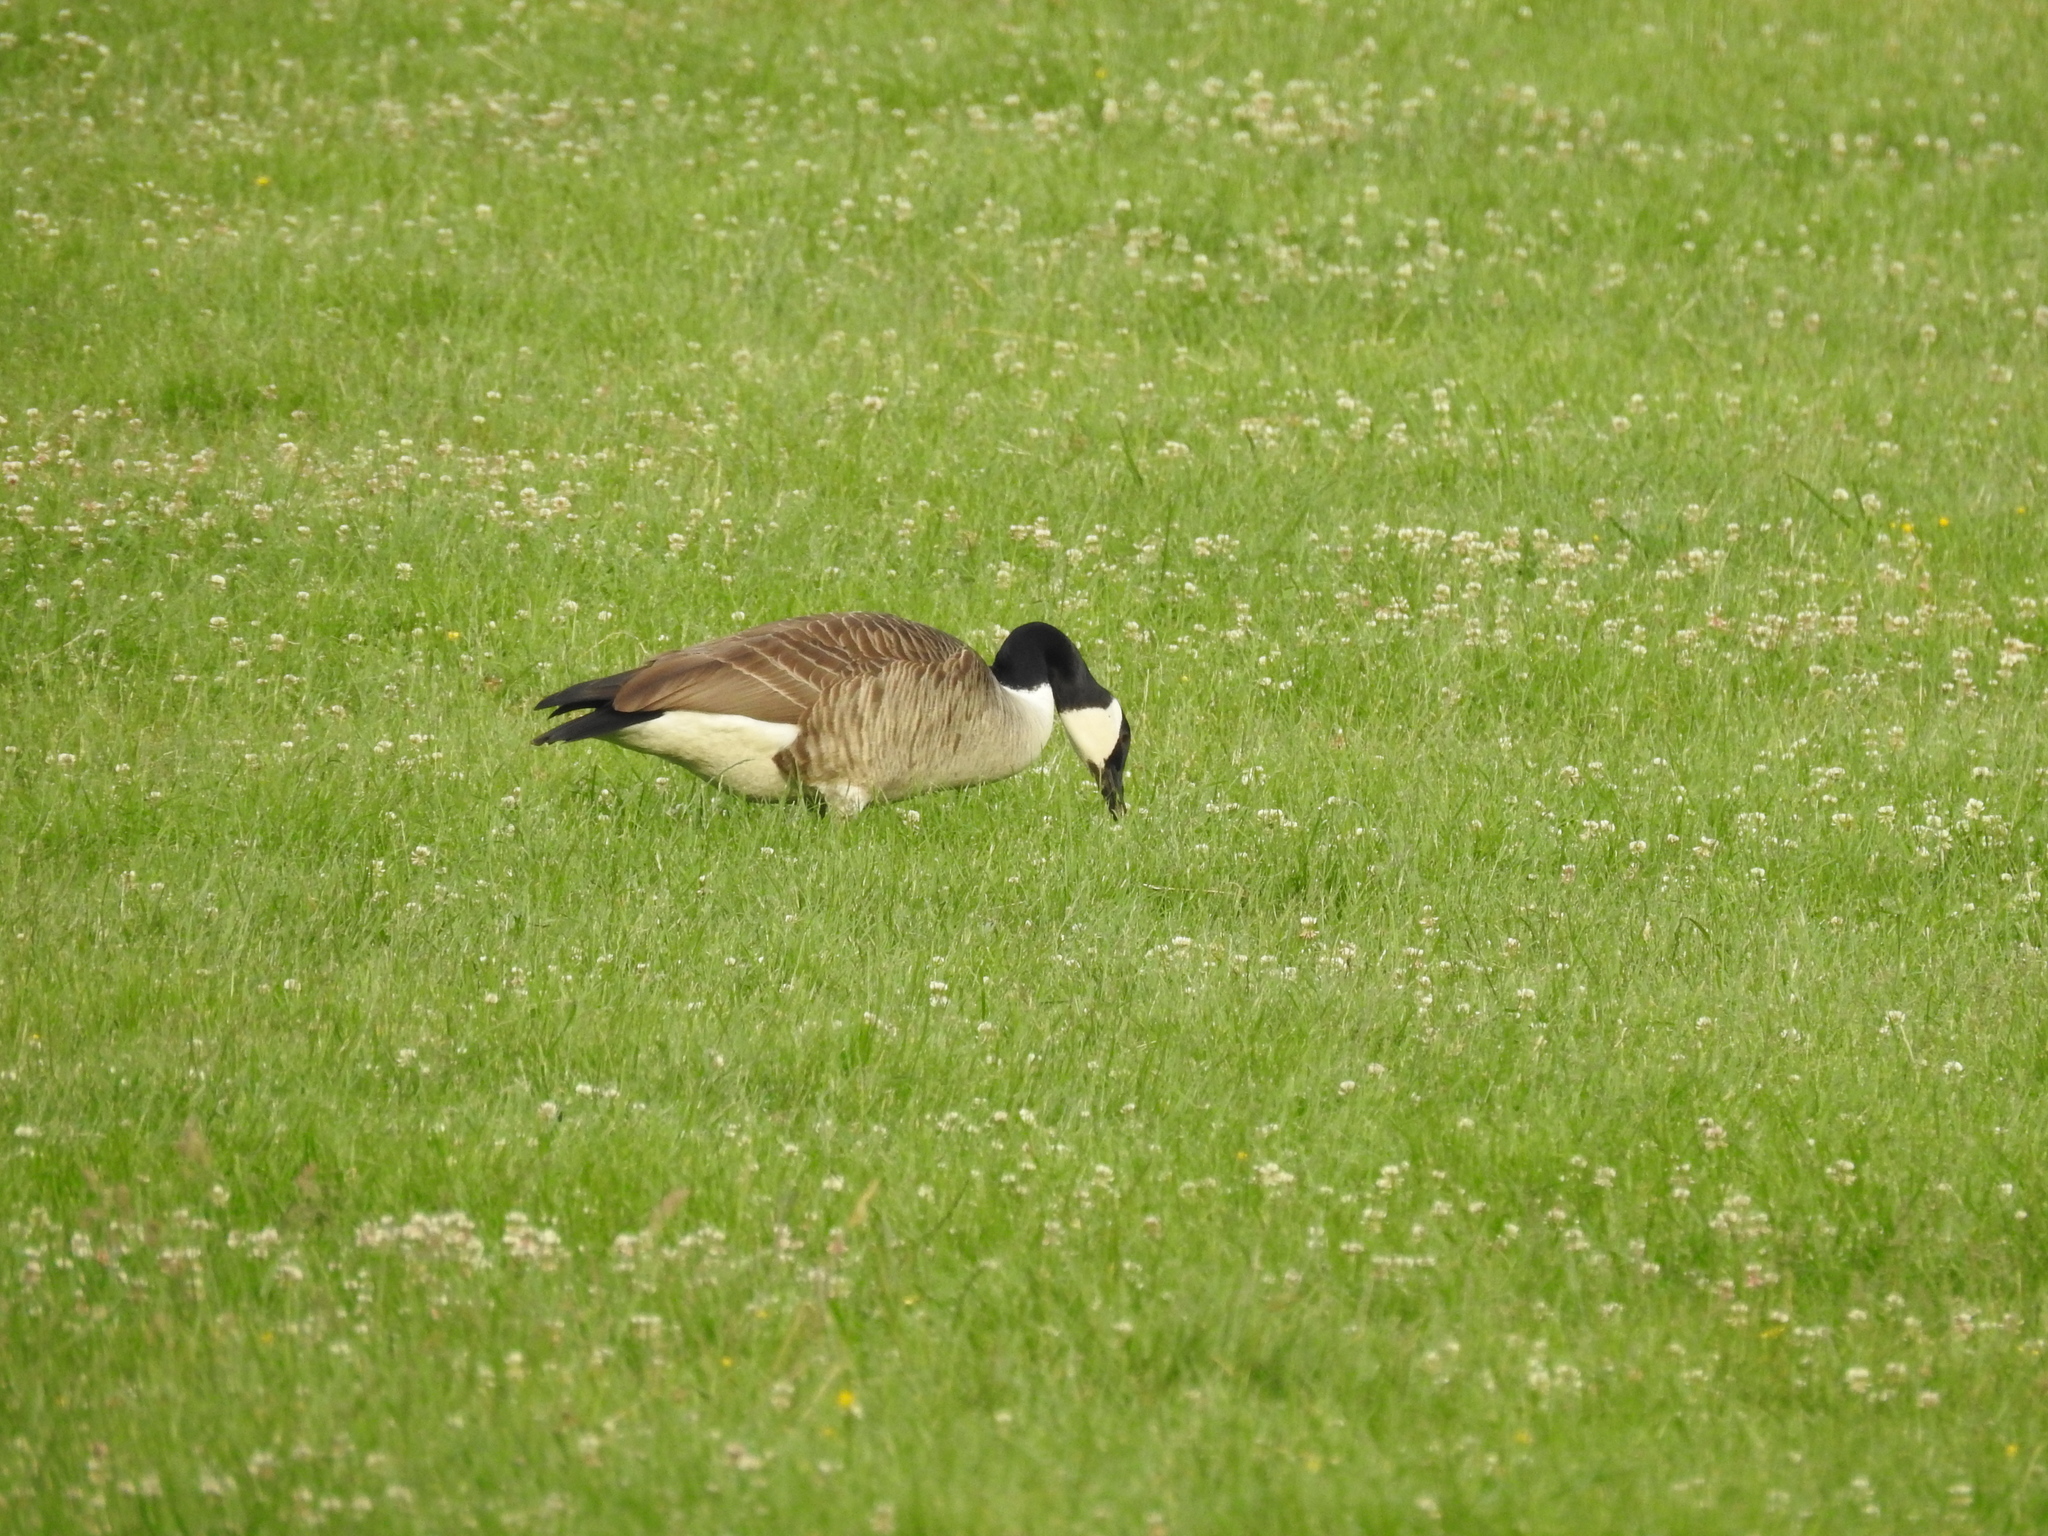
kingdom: Animalia
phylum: Chordata
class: Aves
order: Anseriformes
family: Anatidae
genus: Branta
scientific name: Branta canadensis
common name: Canada goose
